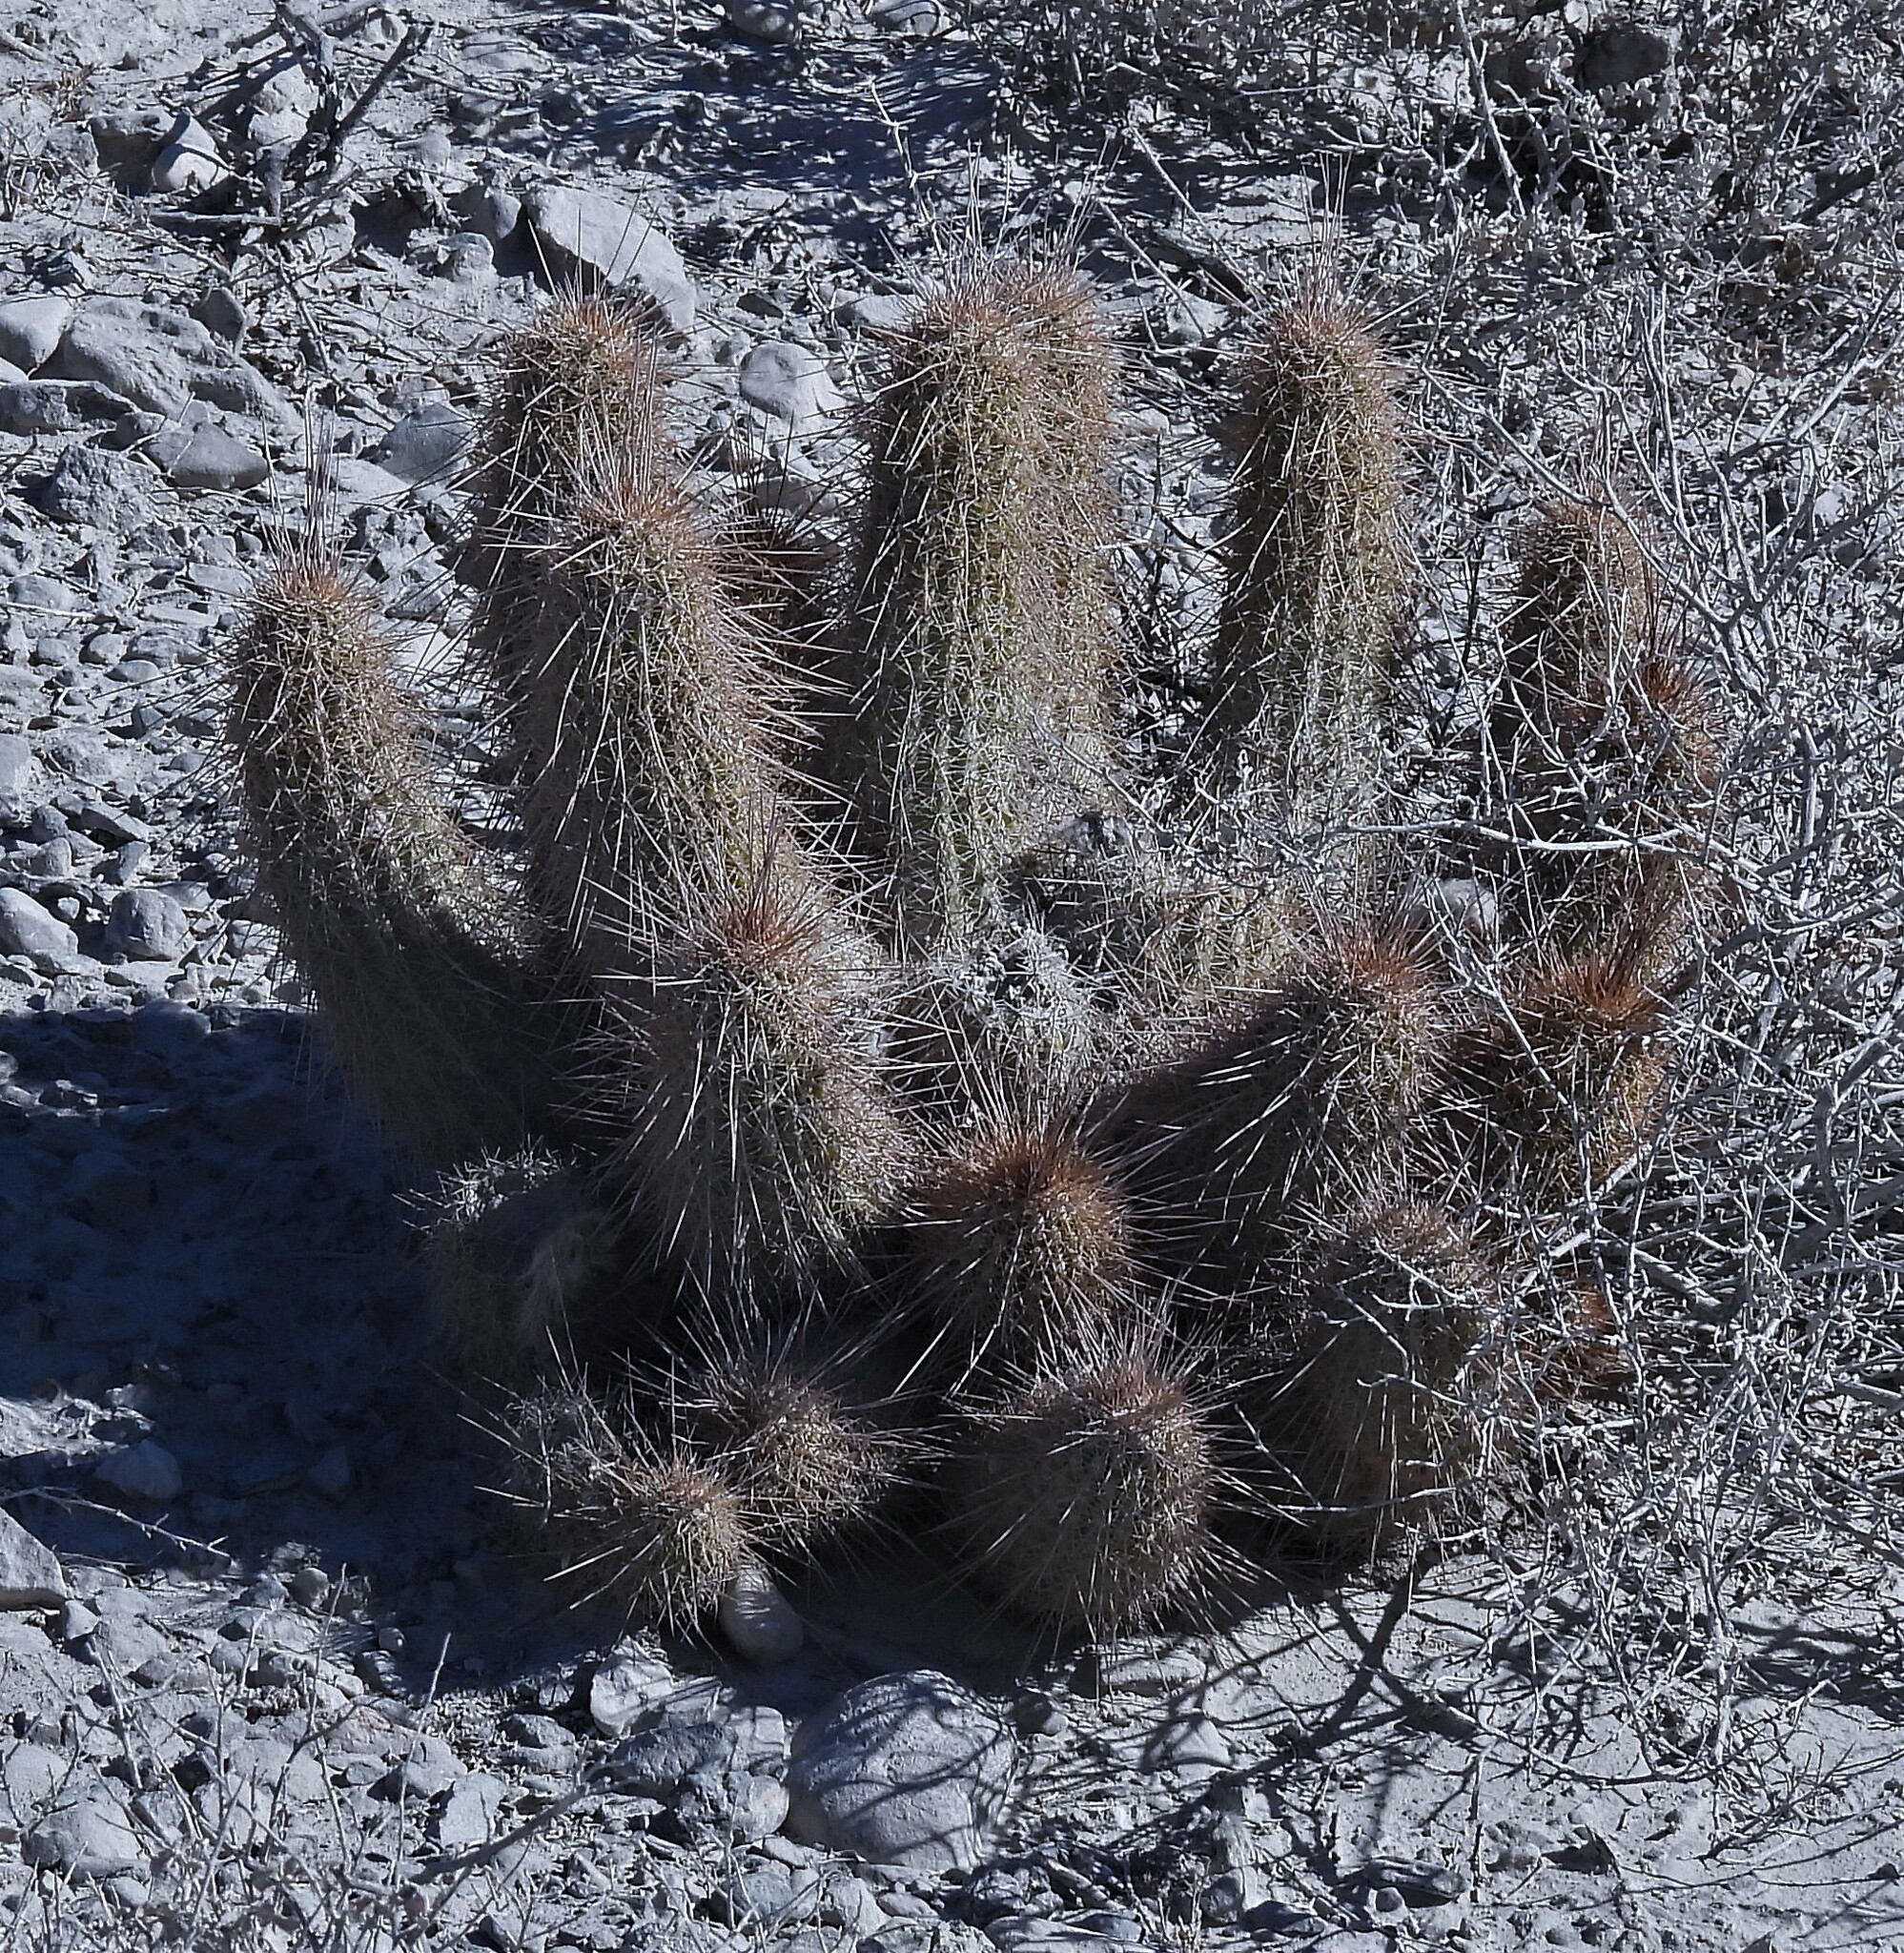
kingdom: Plantae
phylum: Tracheophyta
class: Magnoliopsida
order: Caryophyllales
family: Cactaceae
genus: Soehrensia
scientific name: Soehrensia strigosa
